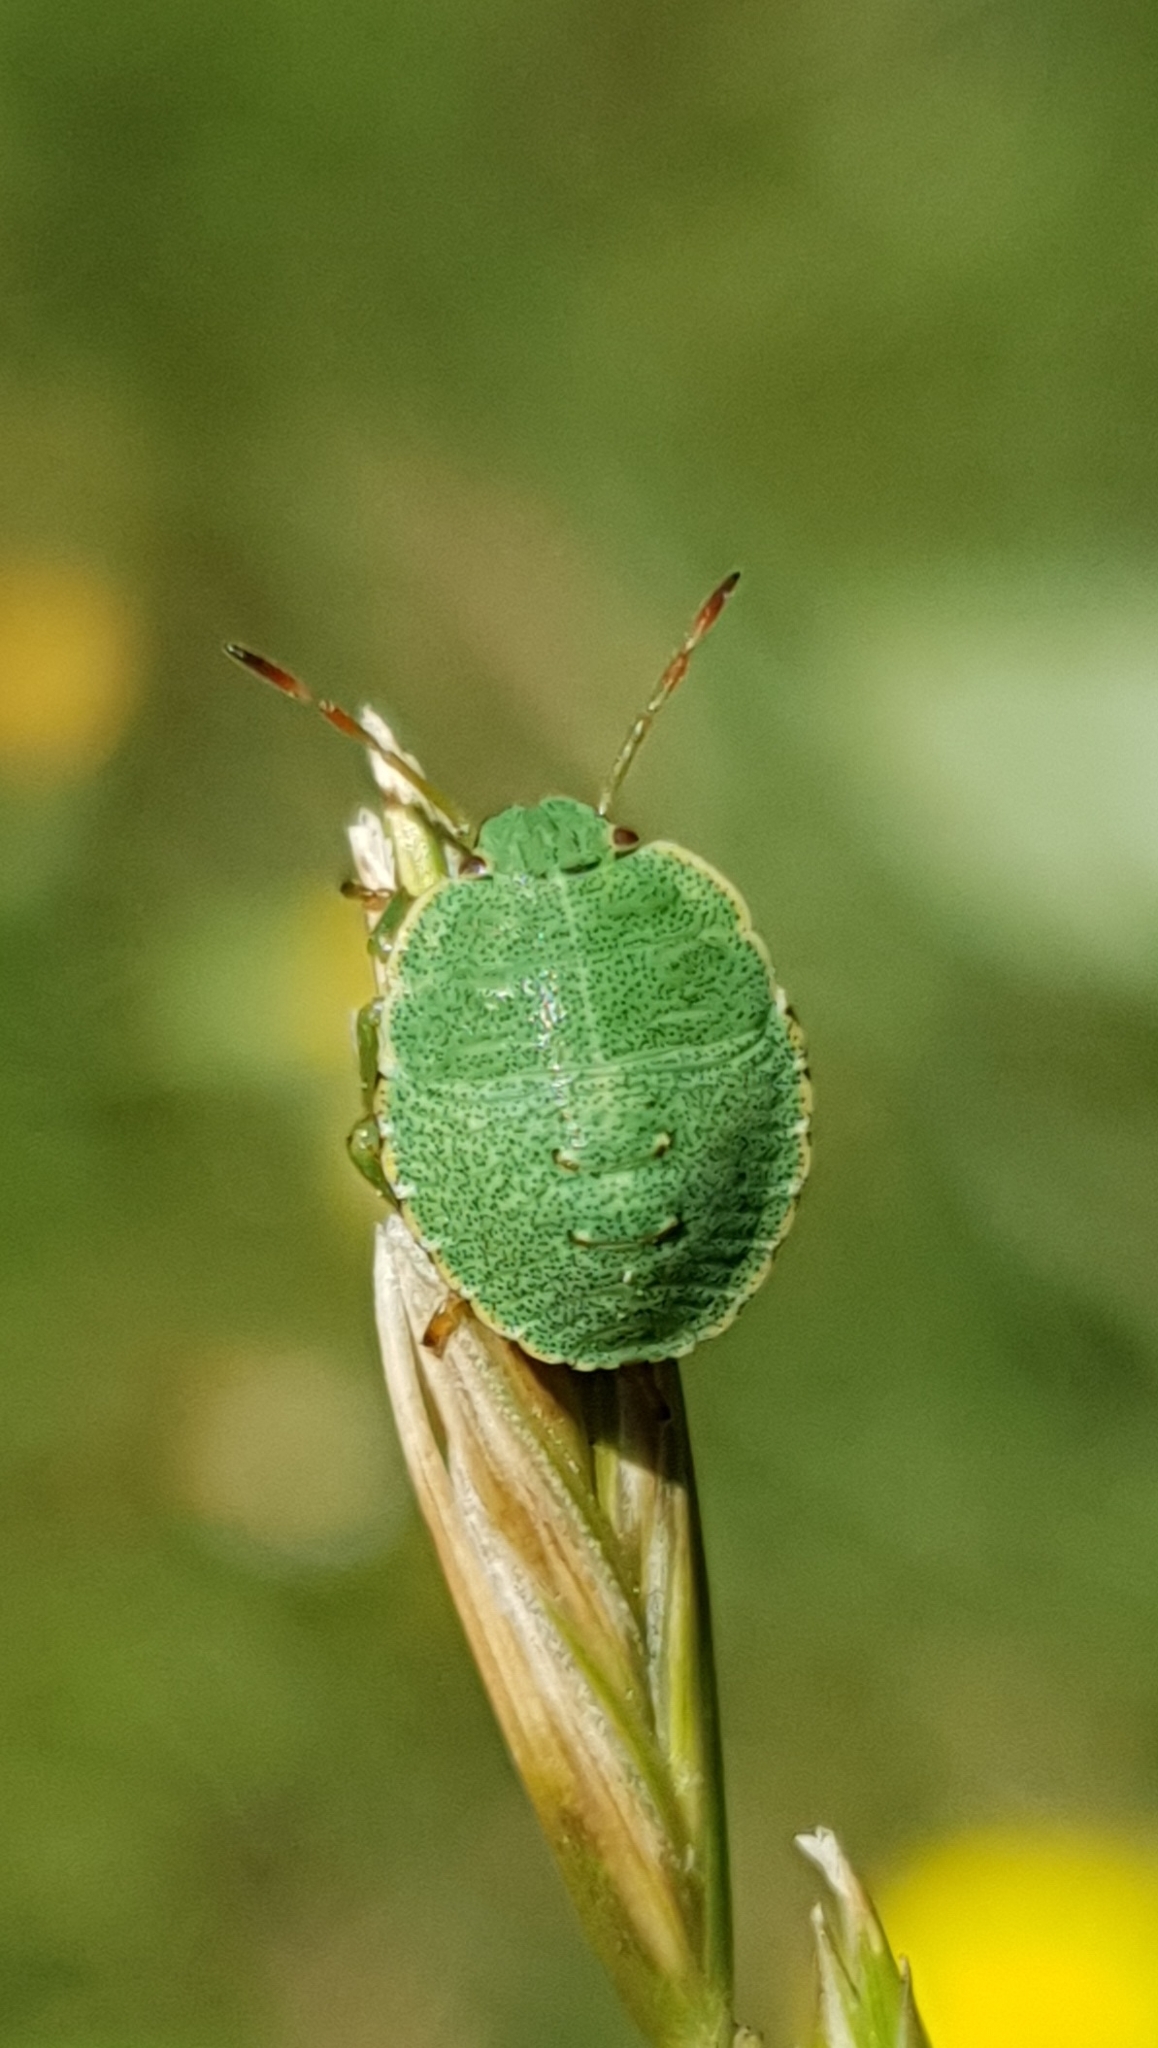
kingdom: Animalia
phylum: Arthropoda
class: Insecta
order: Hemiptera
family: Pentatomidae
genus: Palomena
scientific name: Palomena prasina
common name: Green shieldbug
